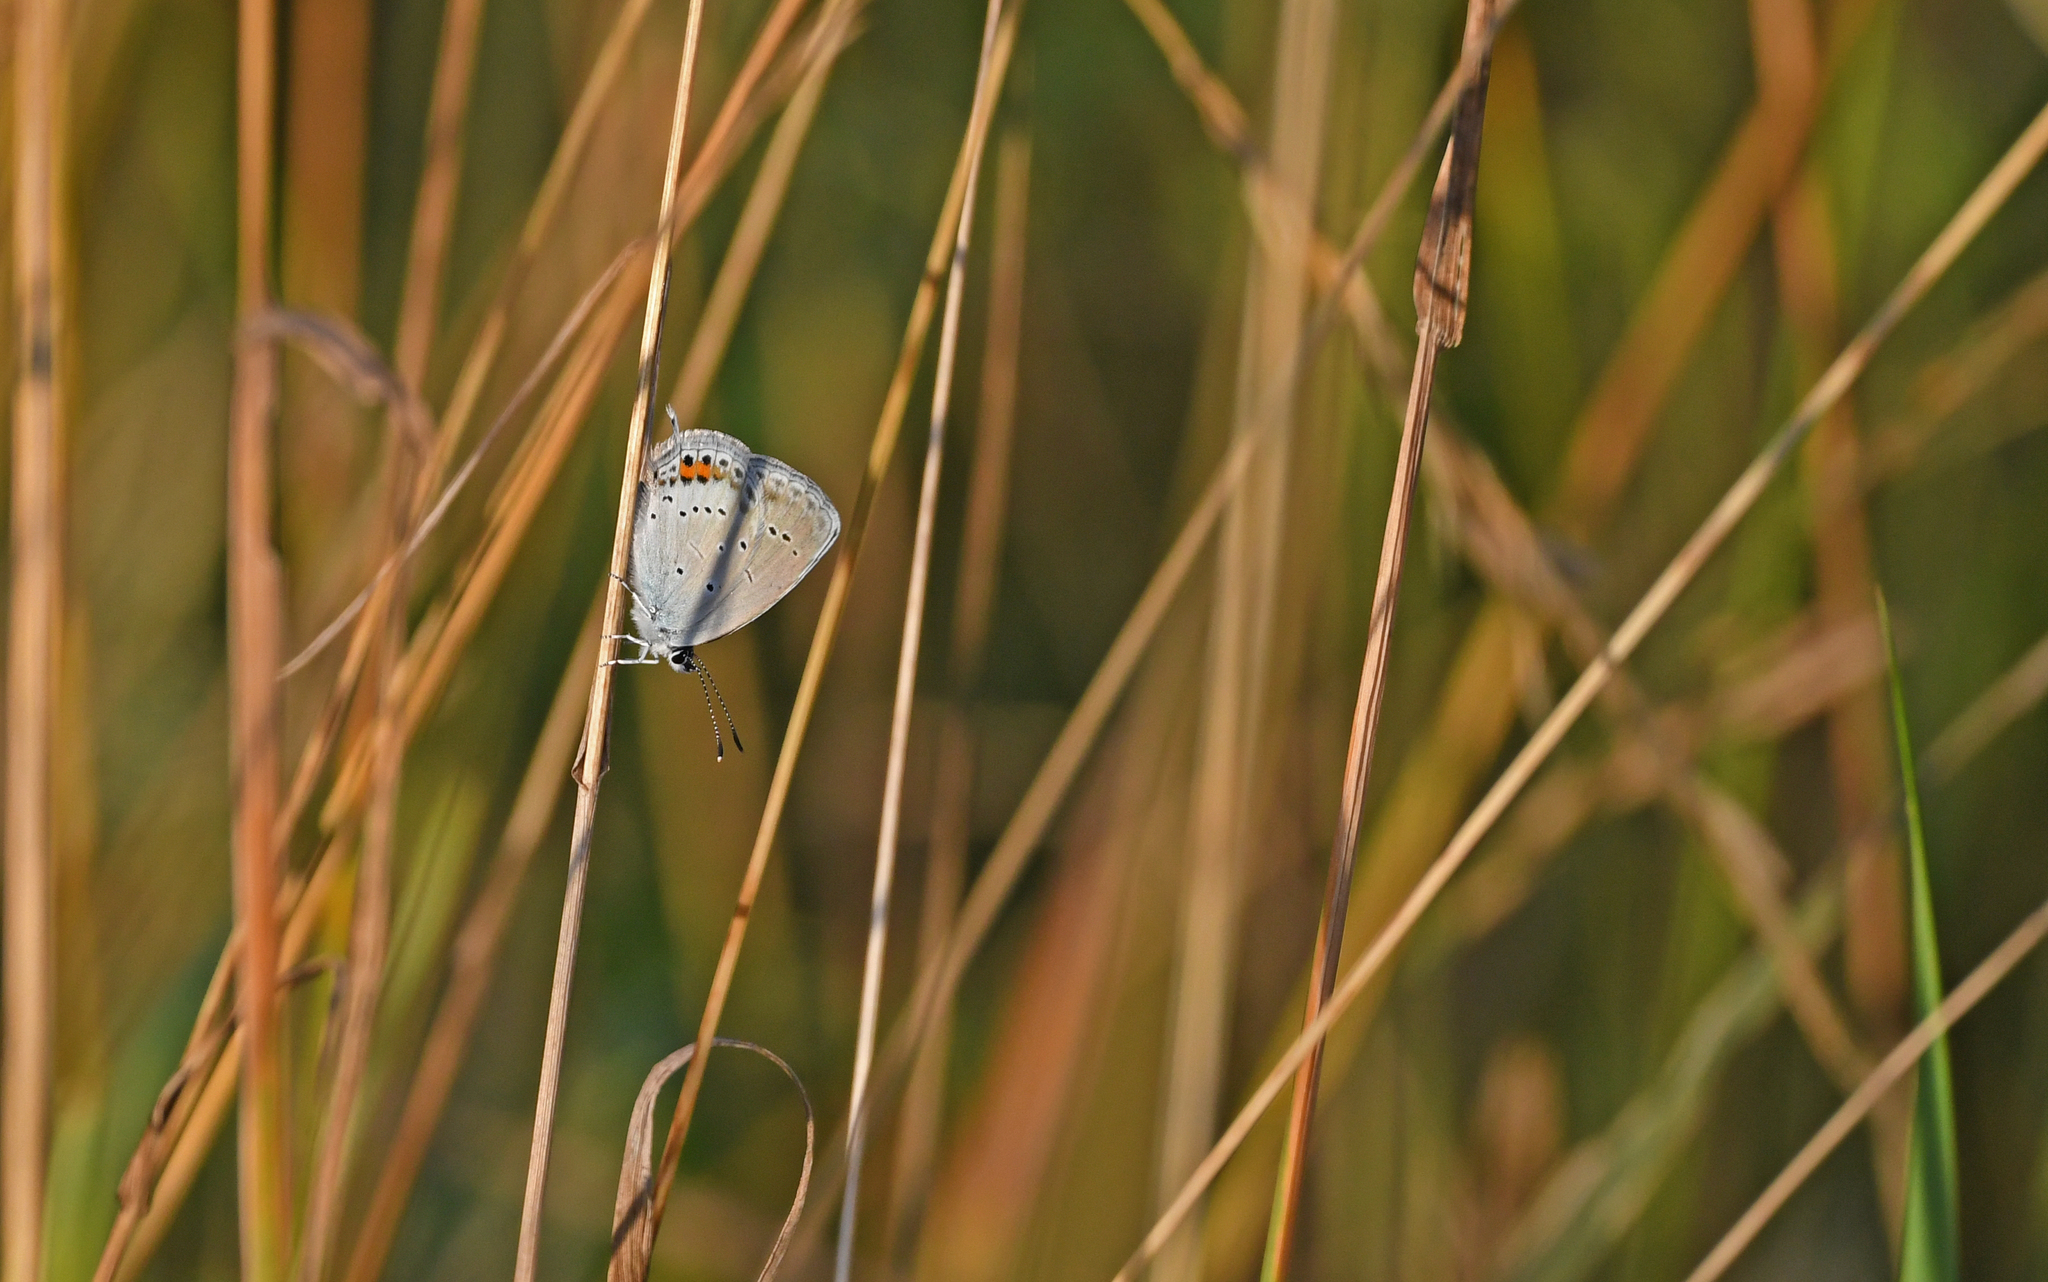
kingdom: Animalia
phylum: Arthropoda
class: Insecta
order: Lepidoptera
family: Lycaenidae
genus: Elkalyce
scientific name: Elkalyce argiades
